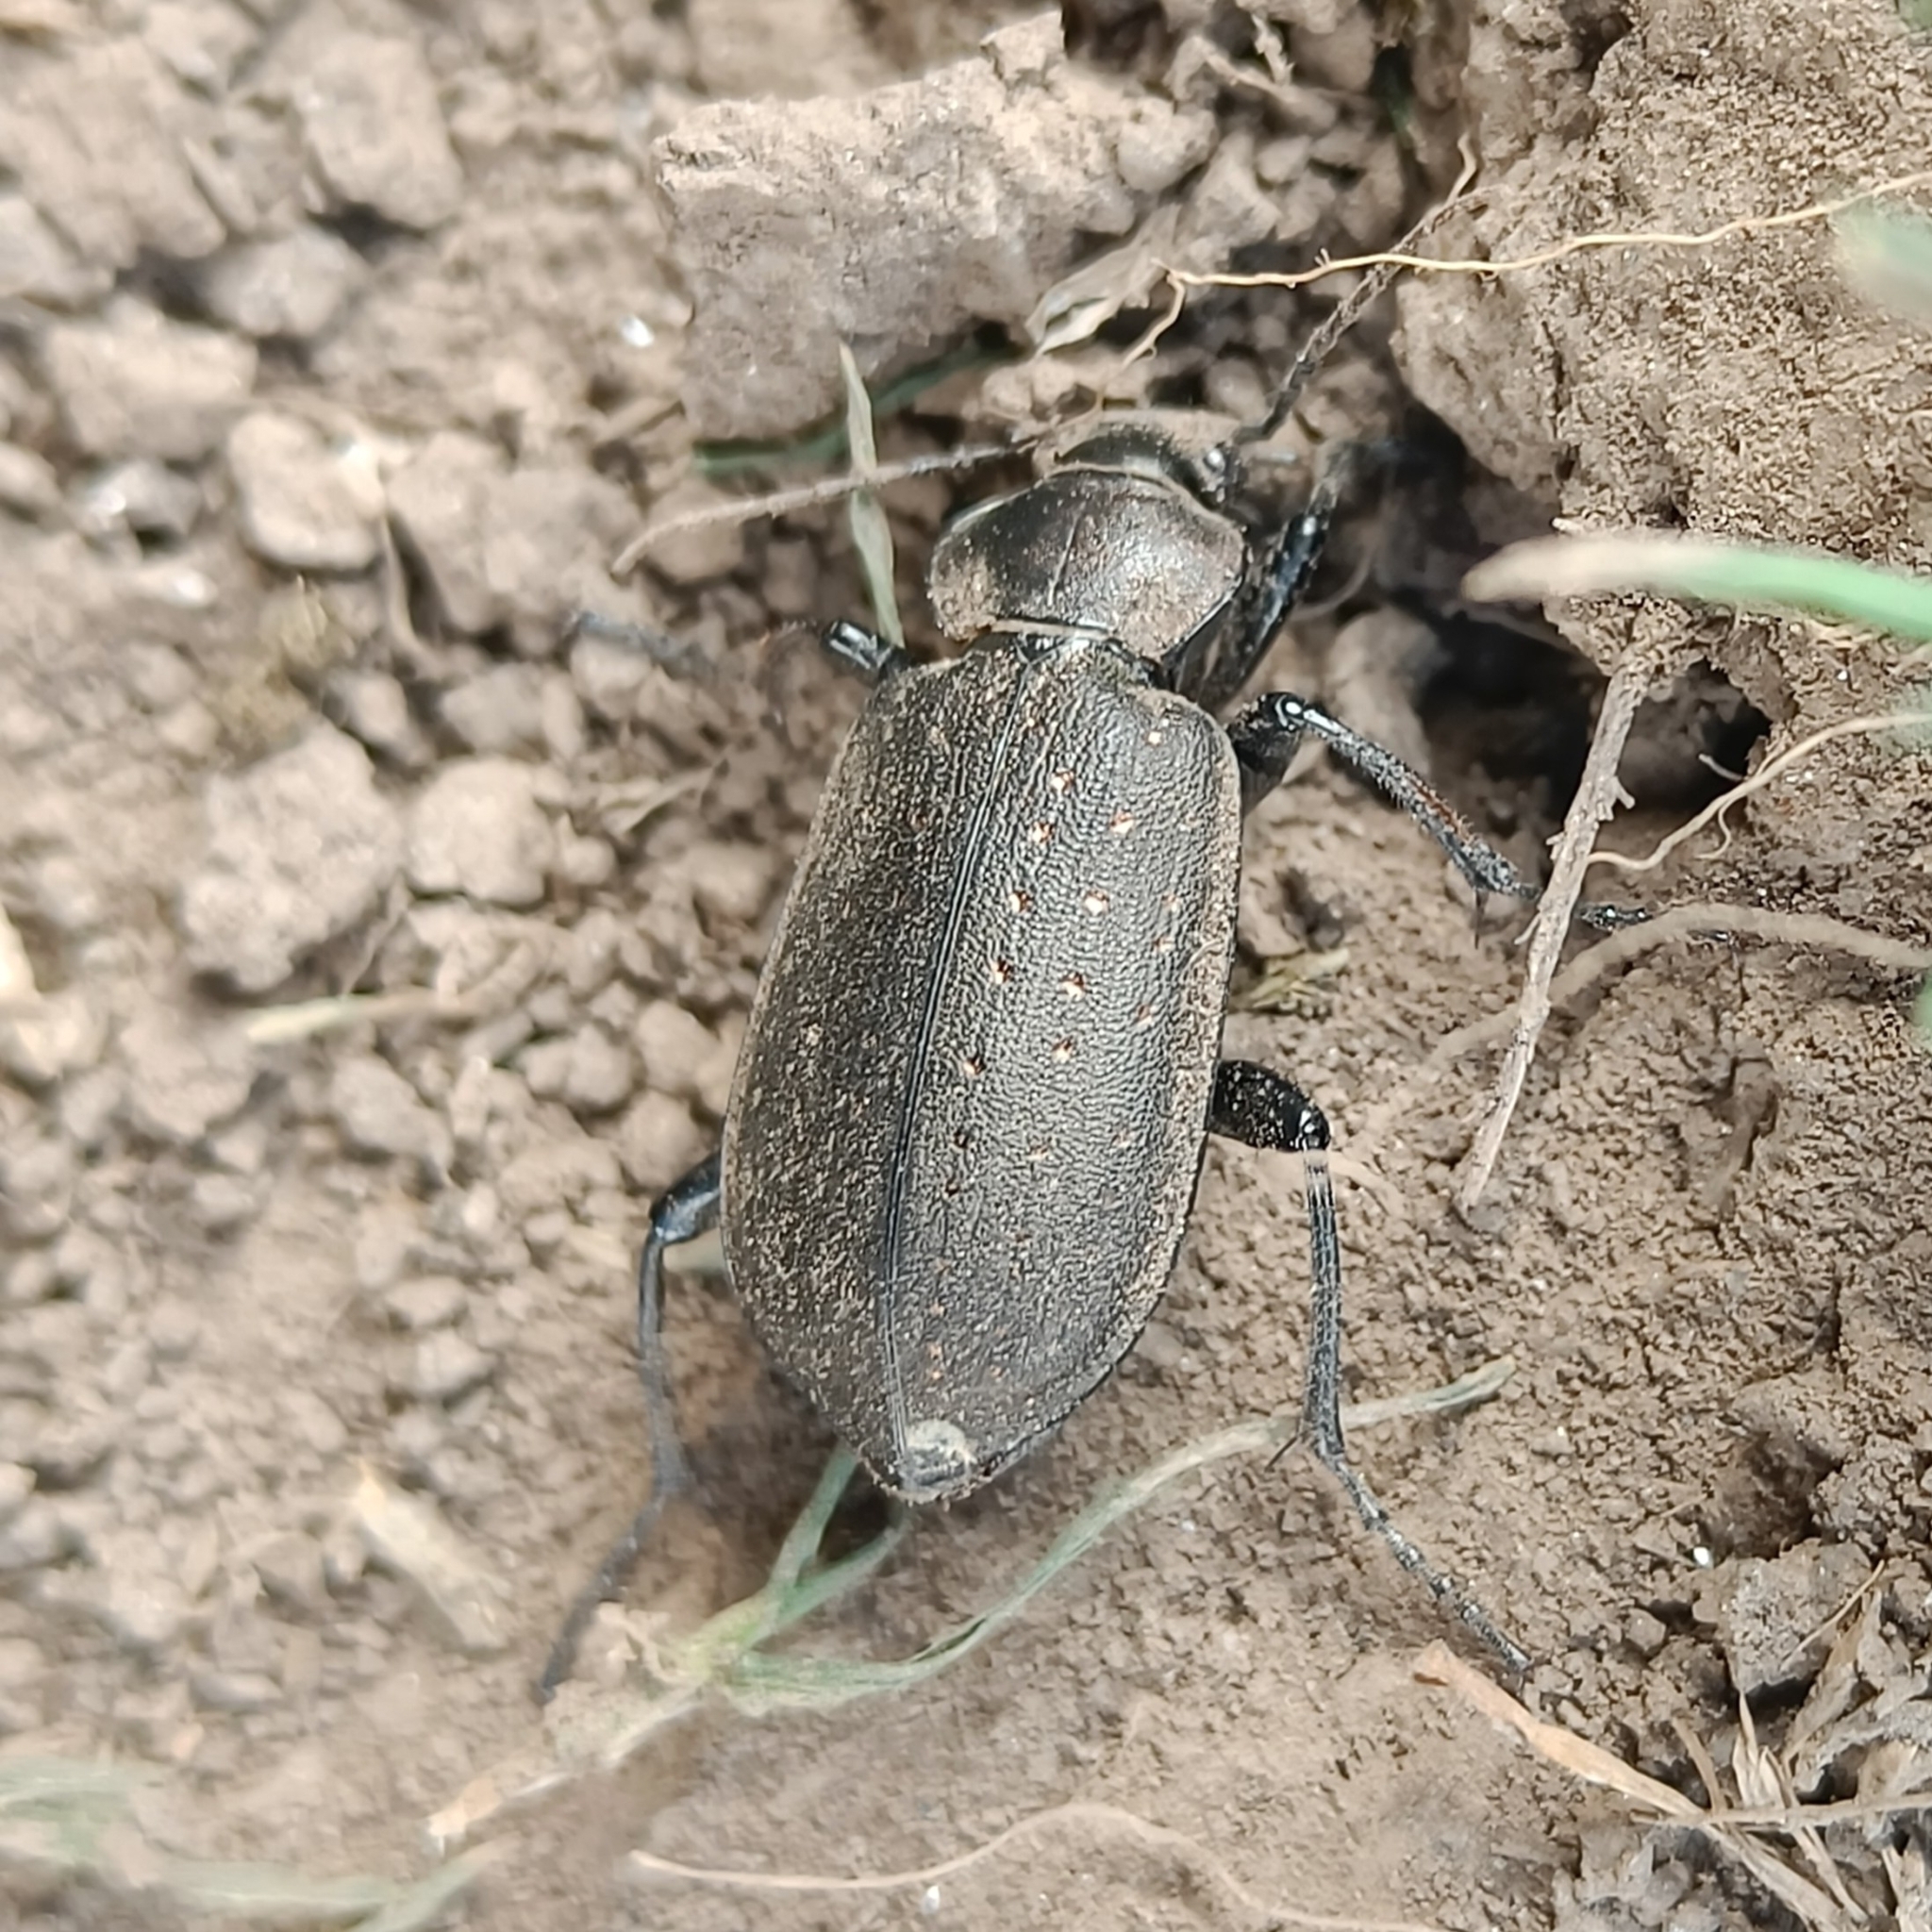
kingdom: Animalia
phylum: Arthropoda
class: Insecta
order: Coleoptera
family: Carabidae
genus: Calosoma
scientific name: Calosoma maderae
